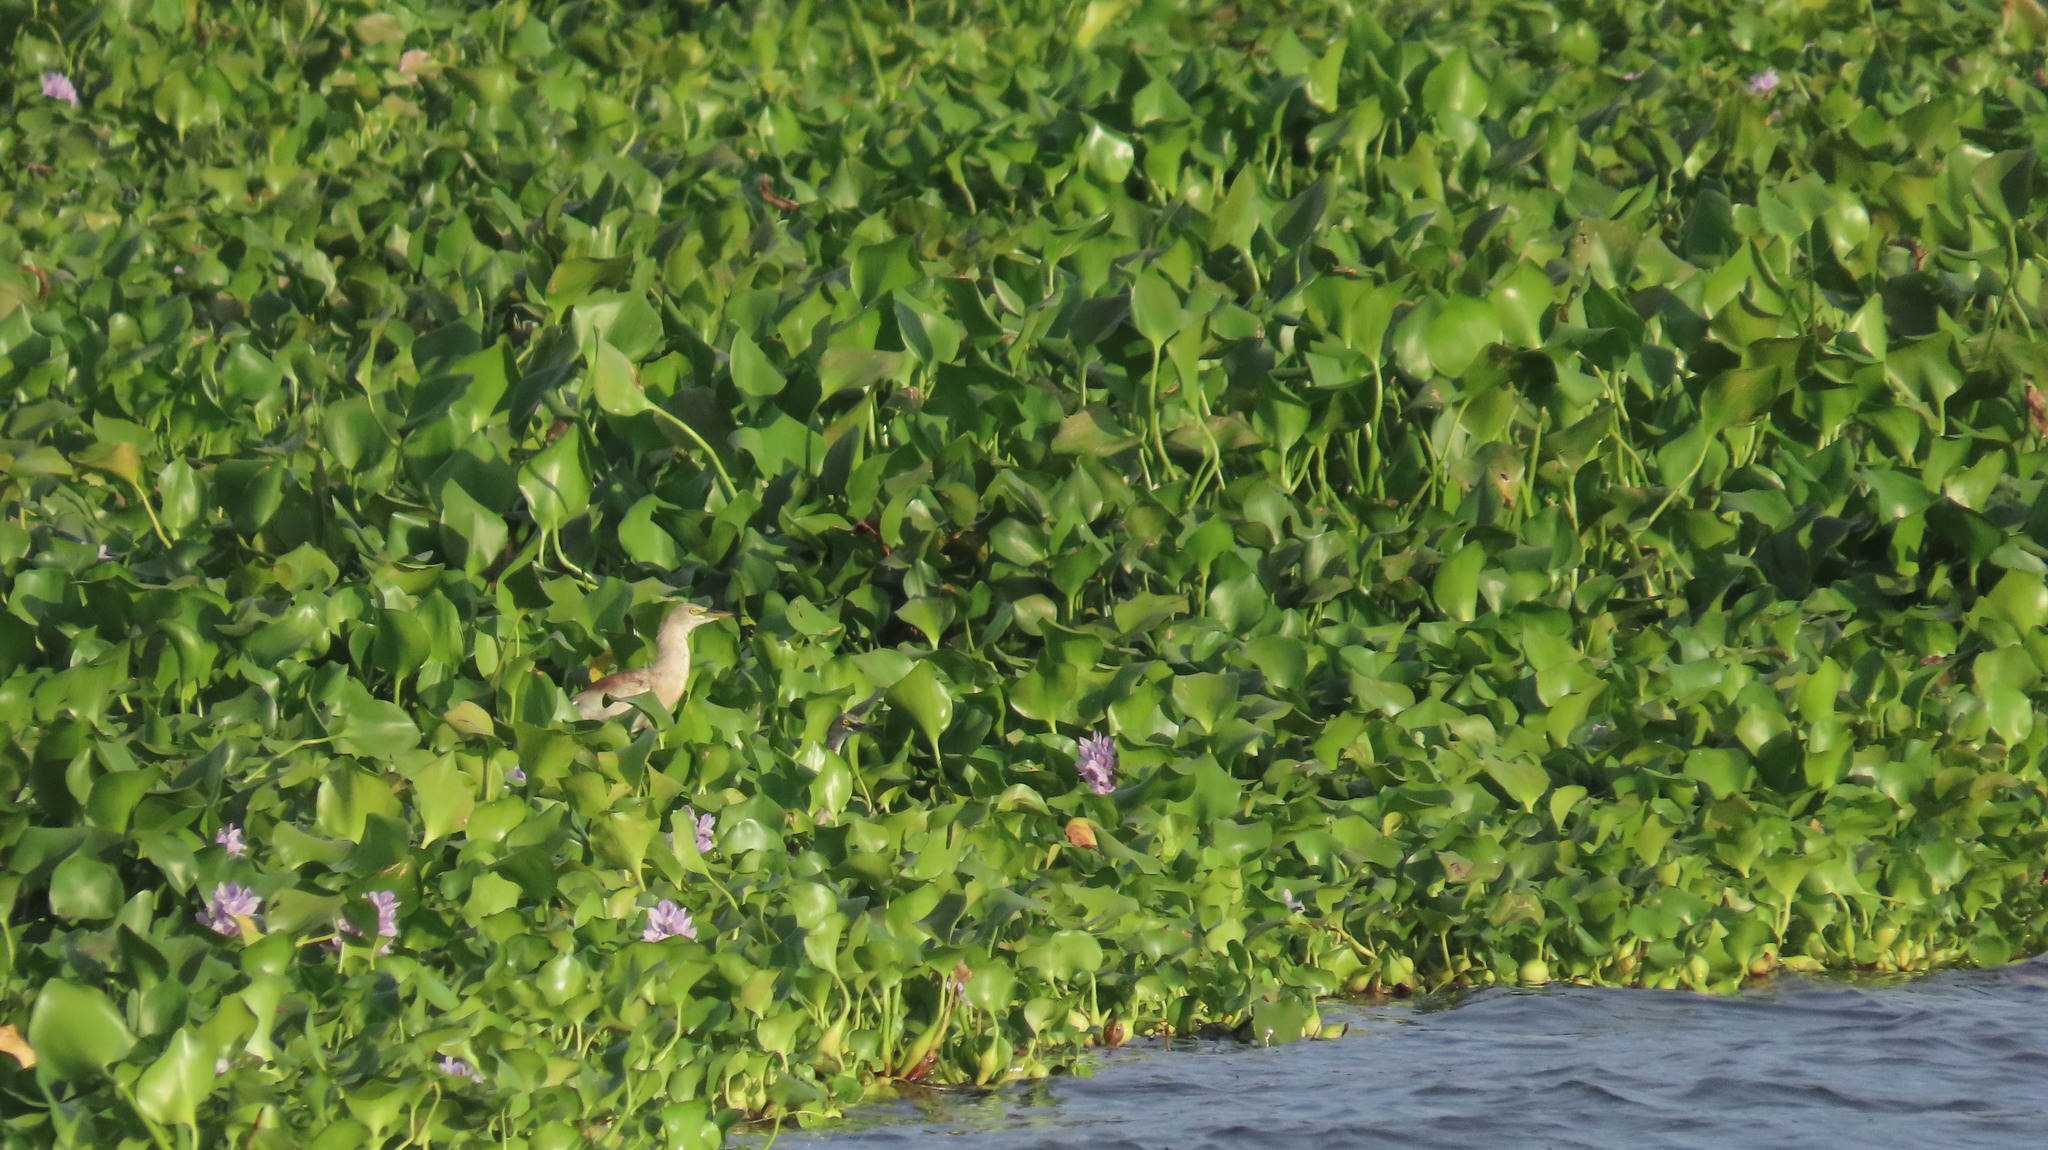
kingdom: Animalia
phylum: Chordata
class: Aves
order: Pelecaniformes
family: Ardeidae
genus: Ardeola
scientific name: Ardeola grayii
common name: Indian pond heron
